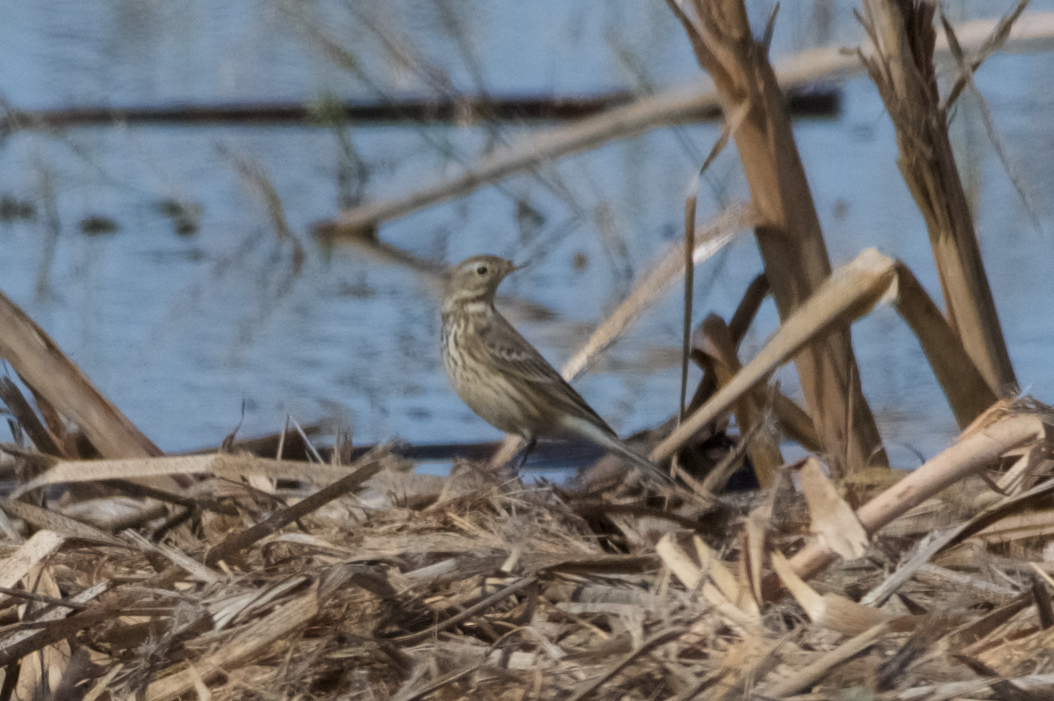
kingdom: Animalia
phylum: Chordata
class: Aves
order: Passeriformes
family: Motacillidae
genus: Anthus
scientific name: Anthus rubescens
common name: Buff-bellied pipit
